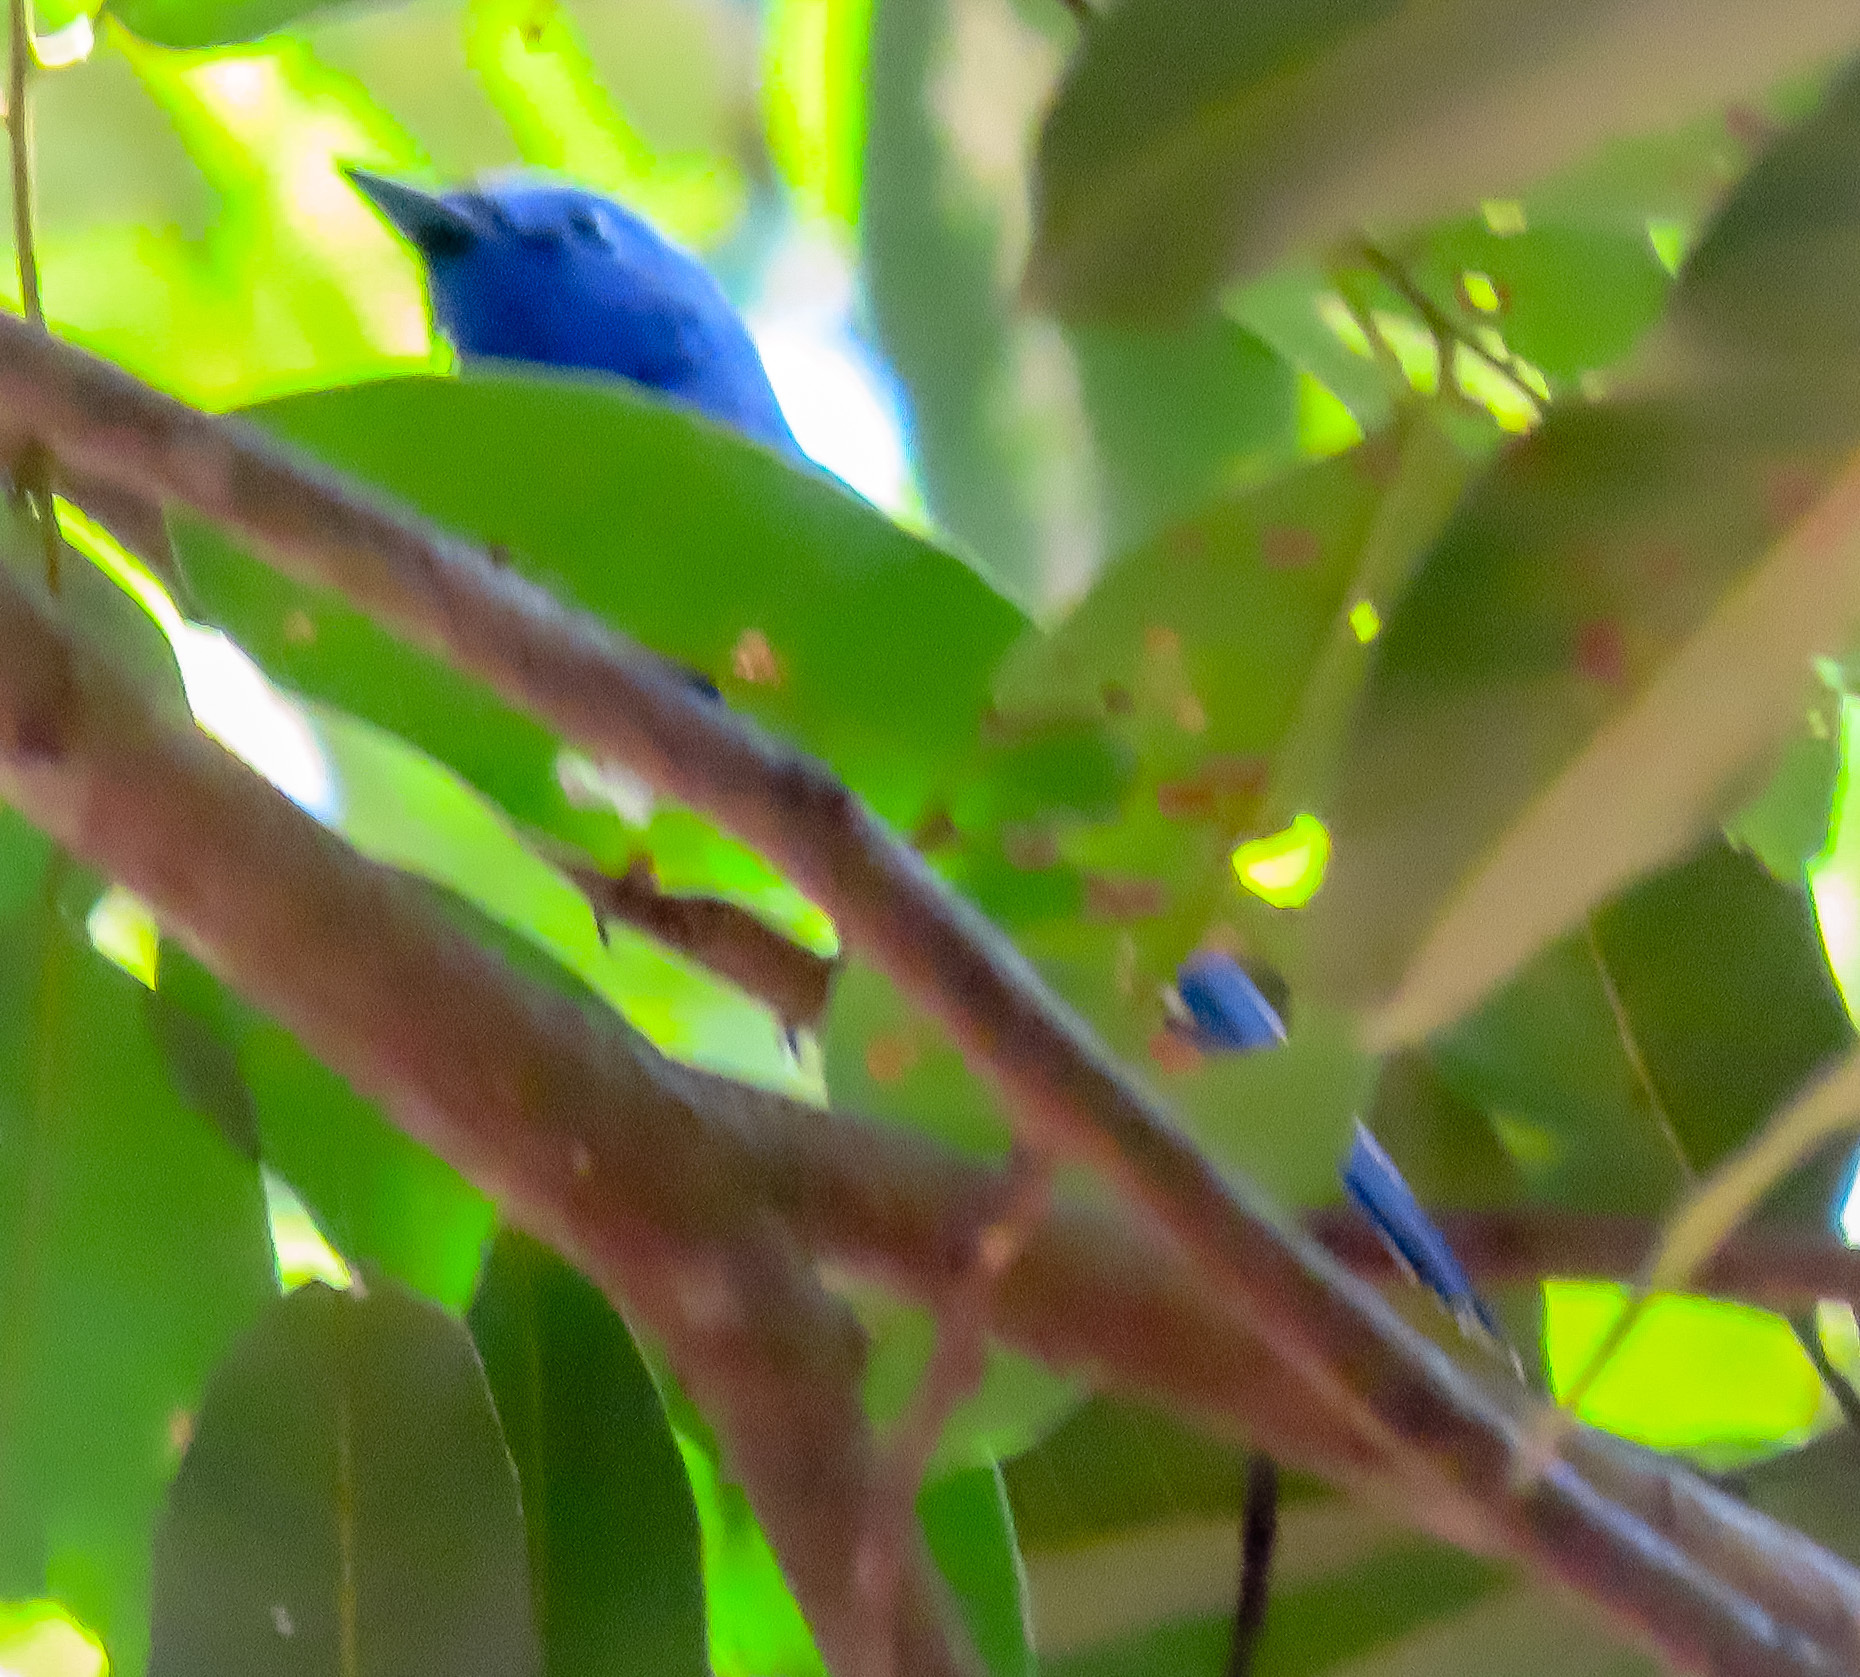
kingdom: Animalia
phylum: Chordata
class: Aves
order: Passeriformes
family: Monarchidae
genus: Hypothymis
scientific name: Hypothymis azurea
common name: Black-naped monarch
